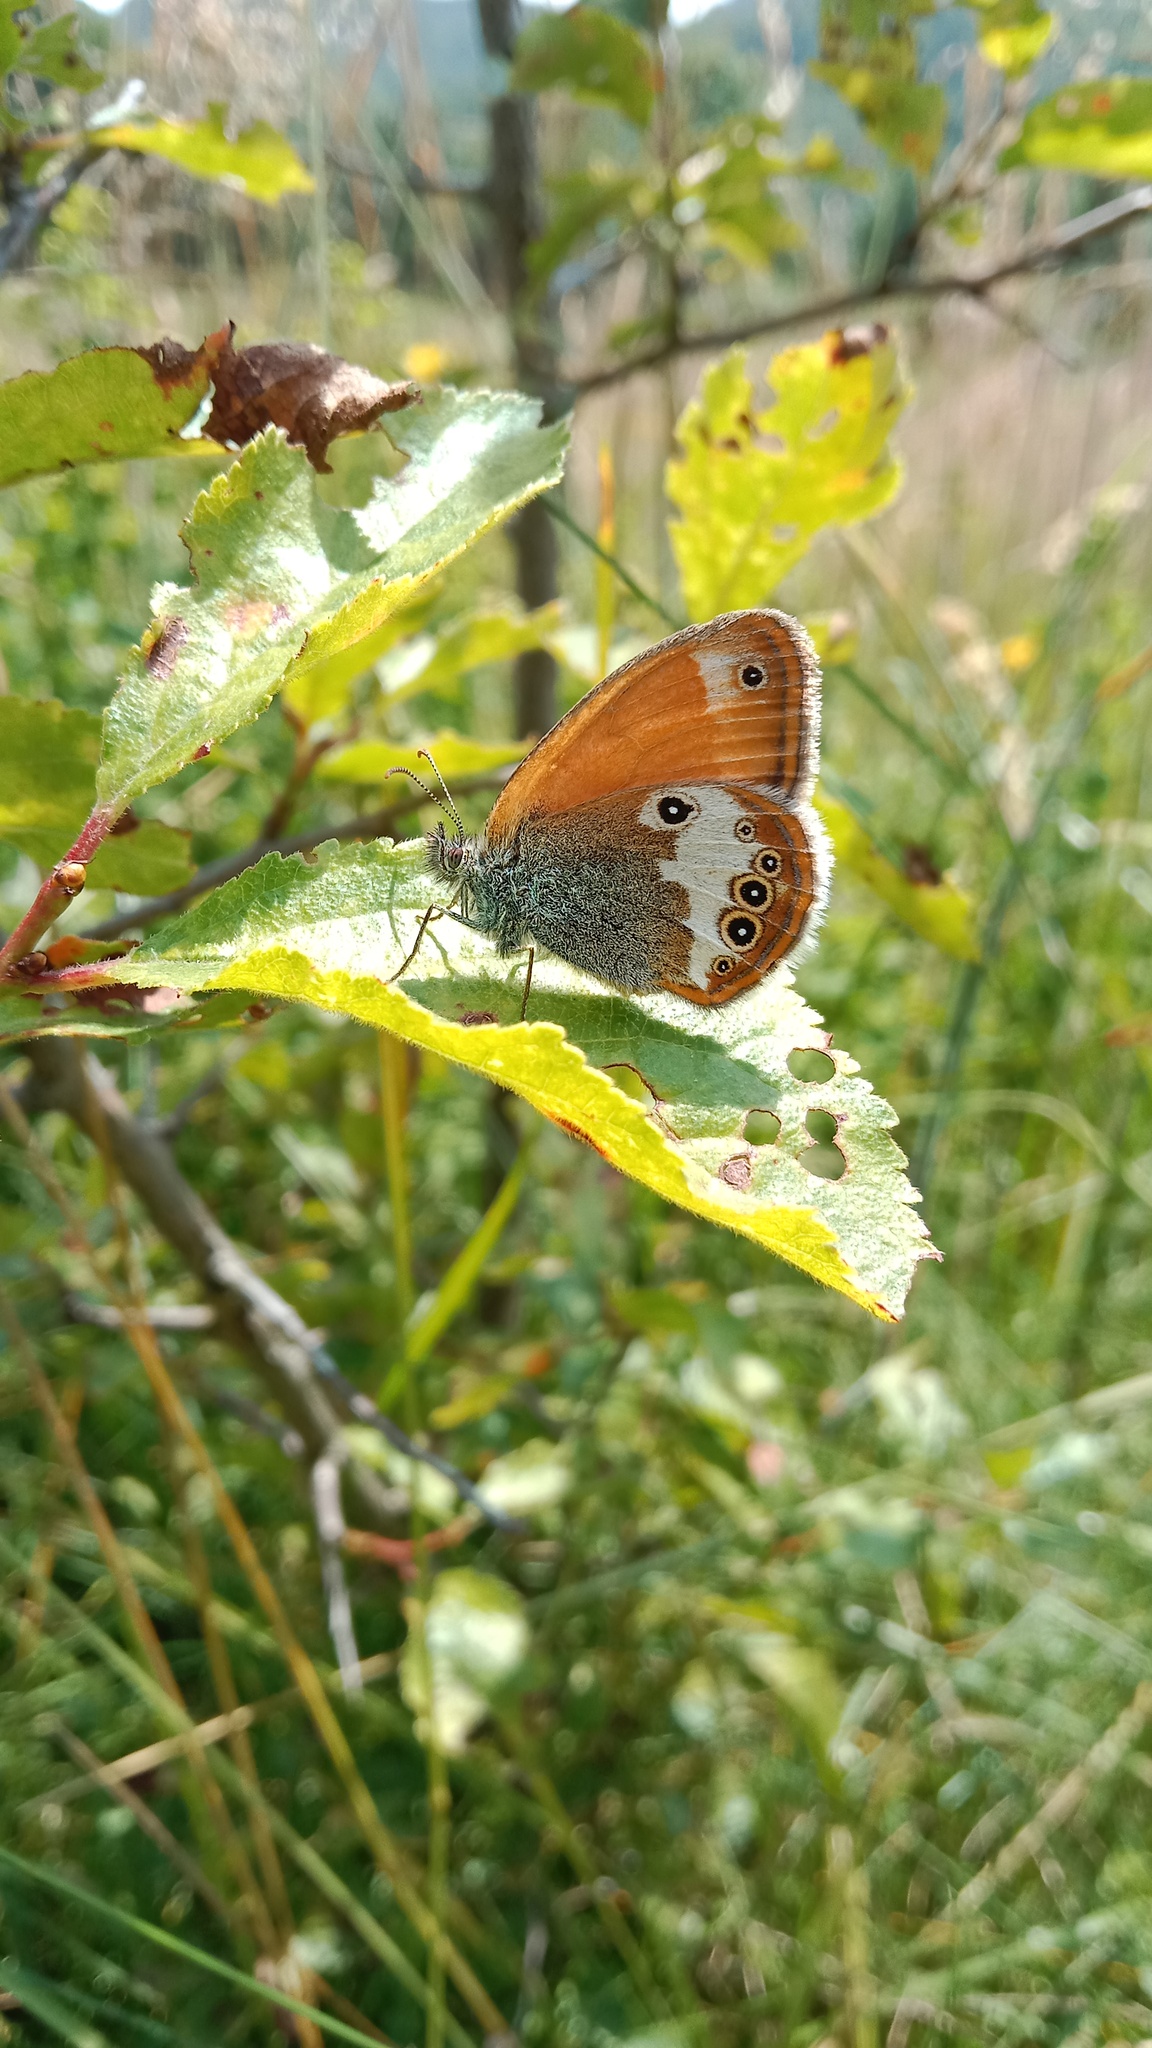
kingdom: Animalia
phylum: Arthropoda
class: Insecta
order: Lepidoptera
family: Nymphalidae
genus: Coenonympha
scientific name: Coenonympha arcania
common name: Pearly heath
